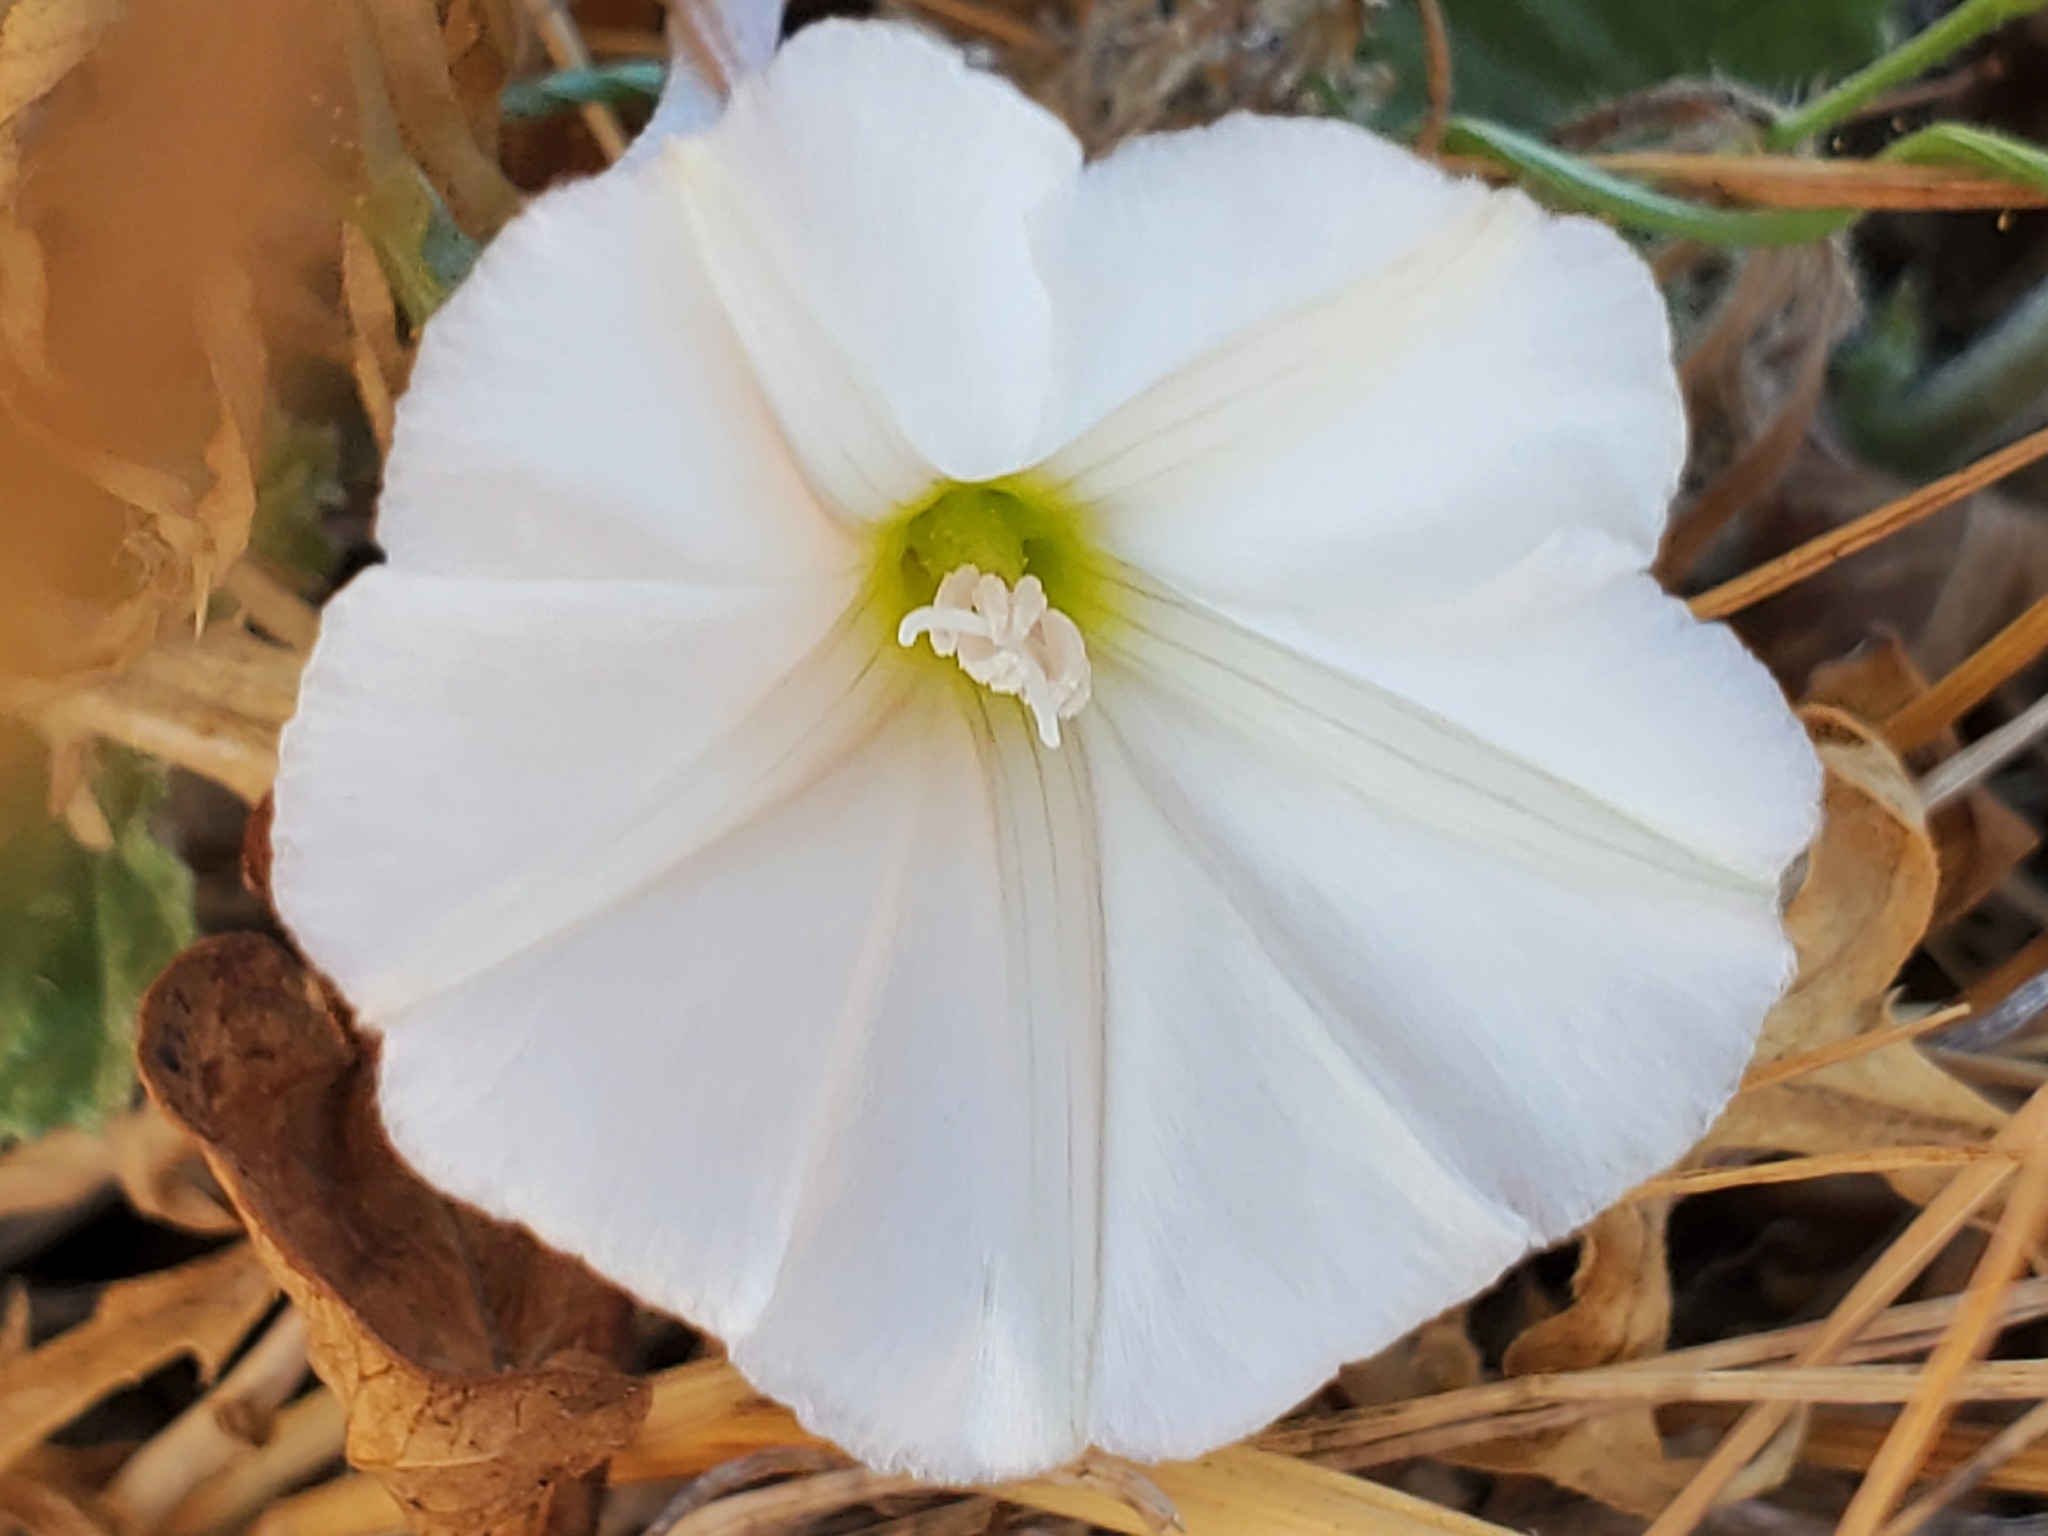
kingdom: Plantae
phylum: Tracheophyta
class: Magnoliopsida
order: Solanales
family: Convolvulaceae
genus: Convolvulus
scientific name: Convolvulus arvensis
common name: Field bindweed
